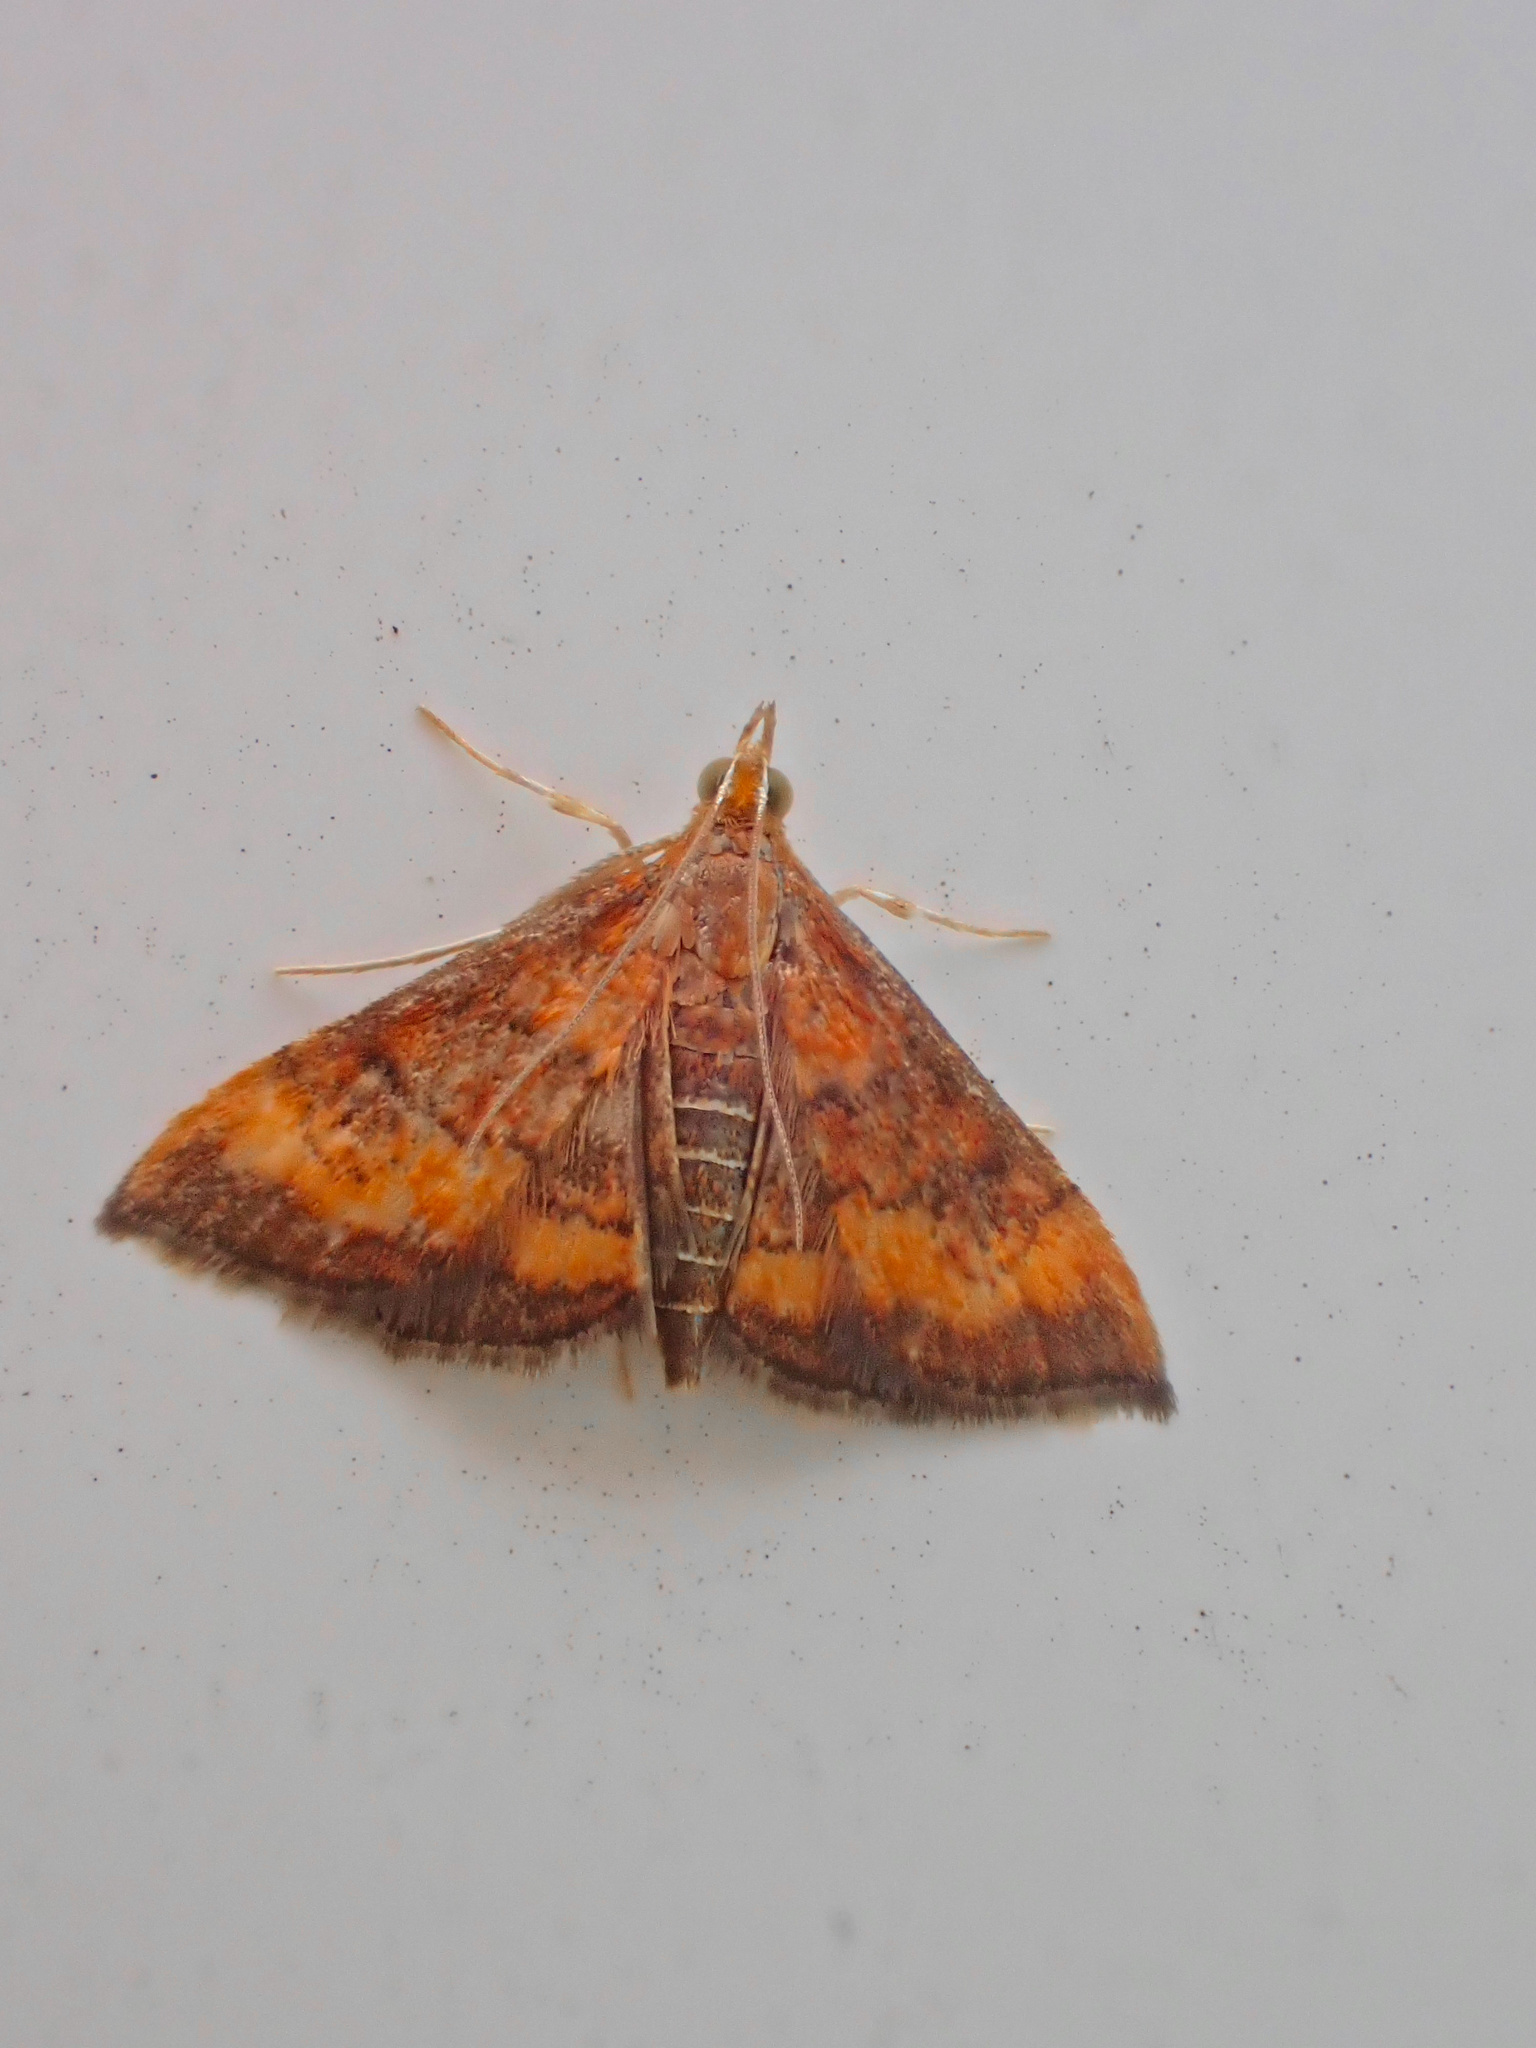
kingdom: Animalia
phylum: Arthropoda
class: Insecta
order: Lepidoptera
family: Crambidae
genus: Pyrausta
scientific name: Pyrausta rubricalis
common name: Variable reddish pyrausta
